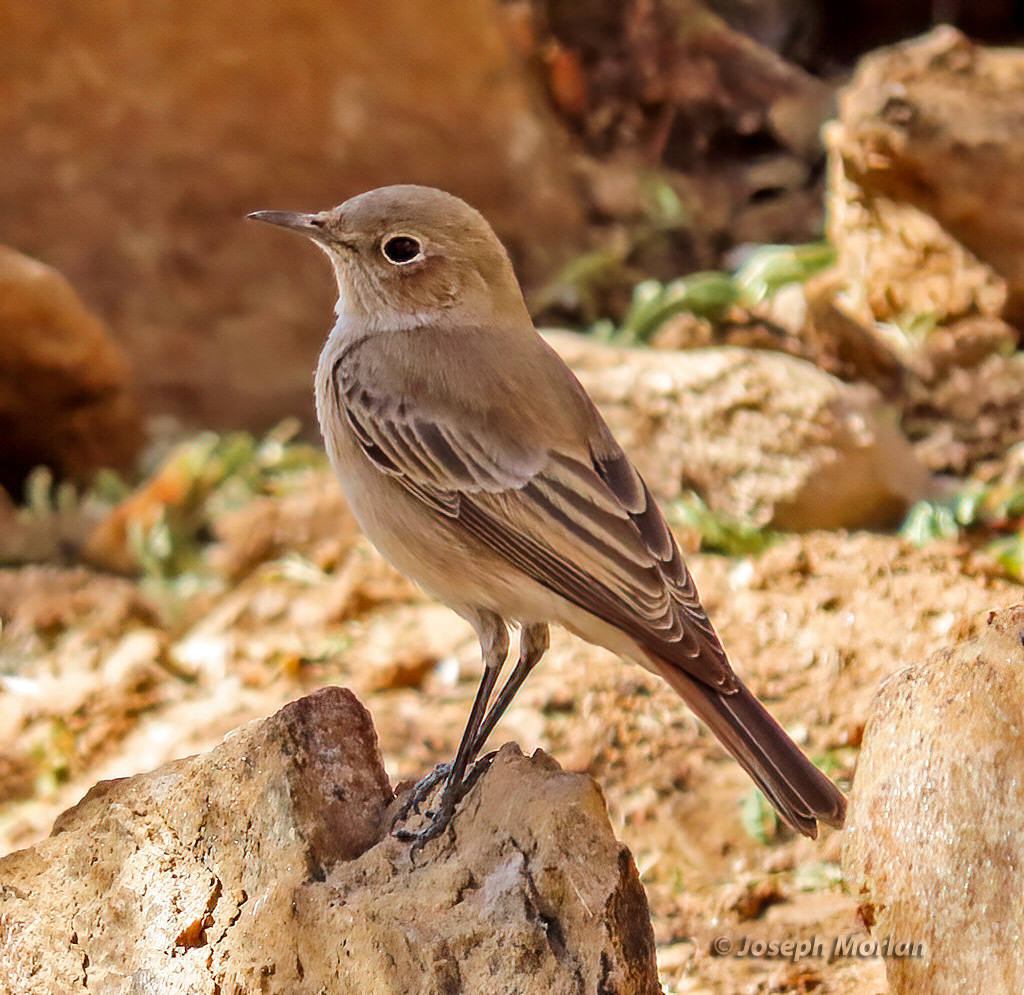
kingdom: Animalia
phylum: Chordata
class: Aves
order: Passeriformes
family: Muscicapidae
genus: Oenanthe
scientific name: Oenanthe familiaris
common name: Familiar chat
